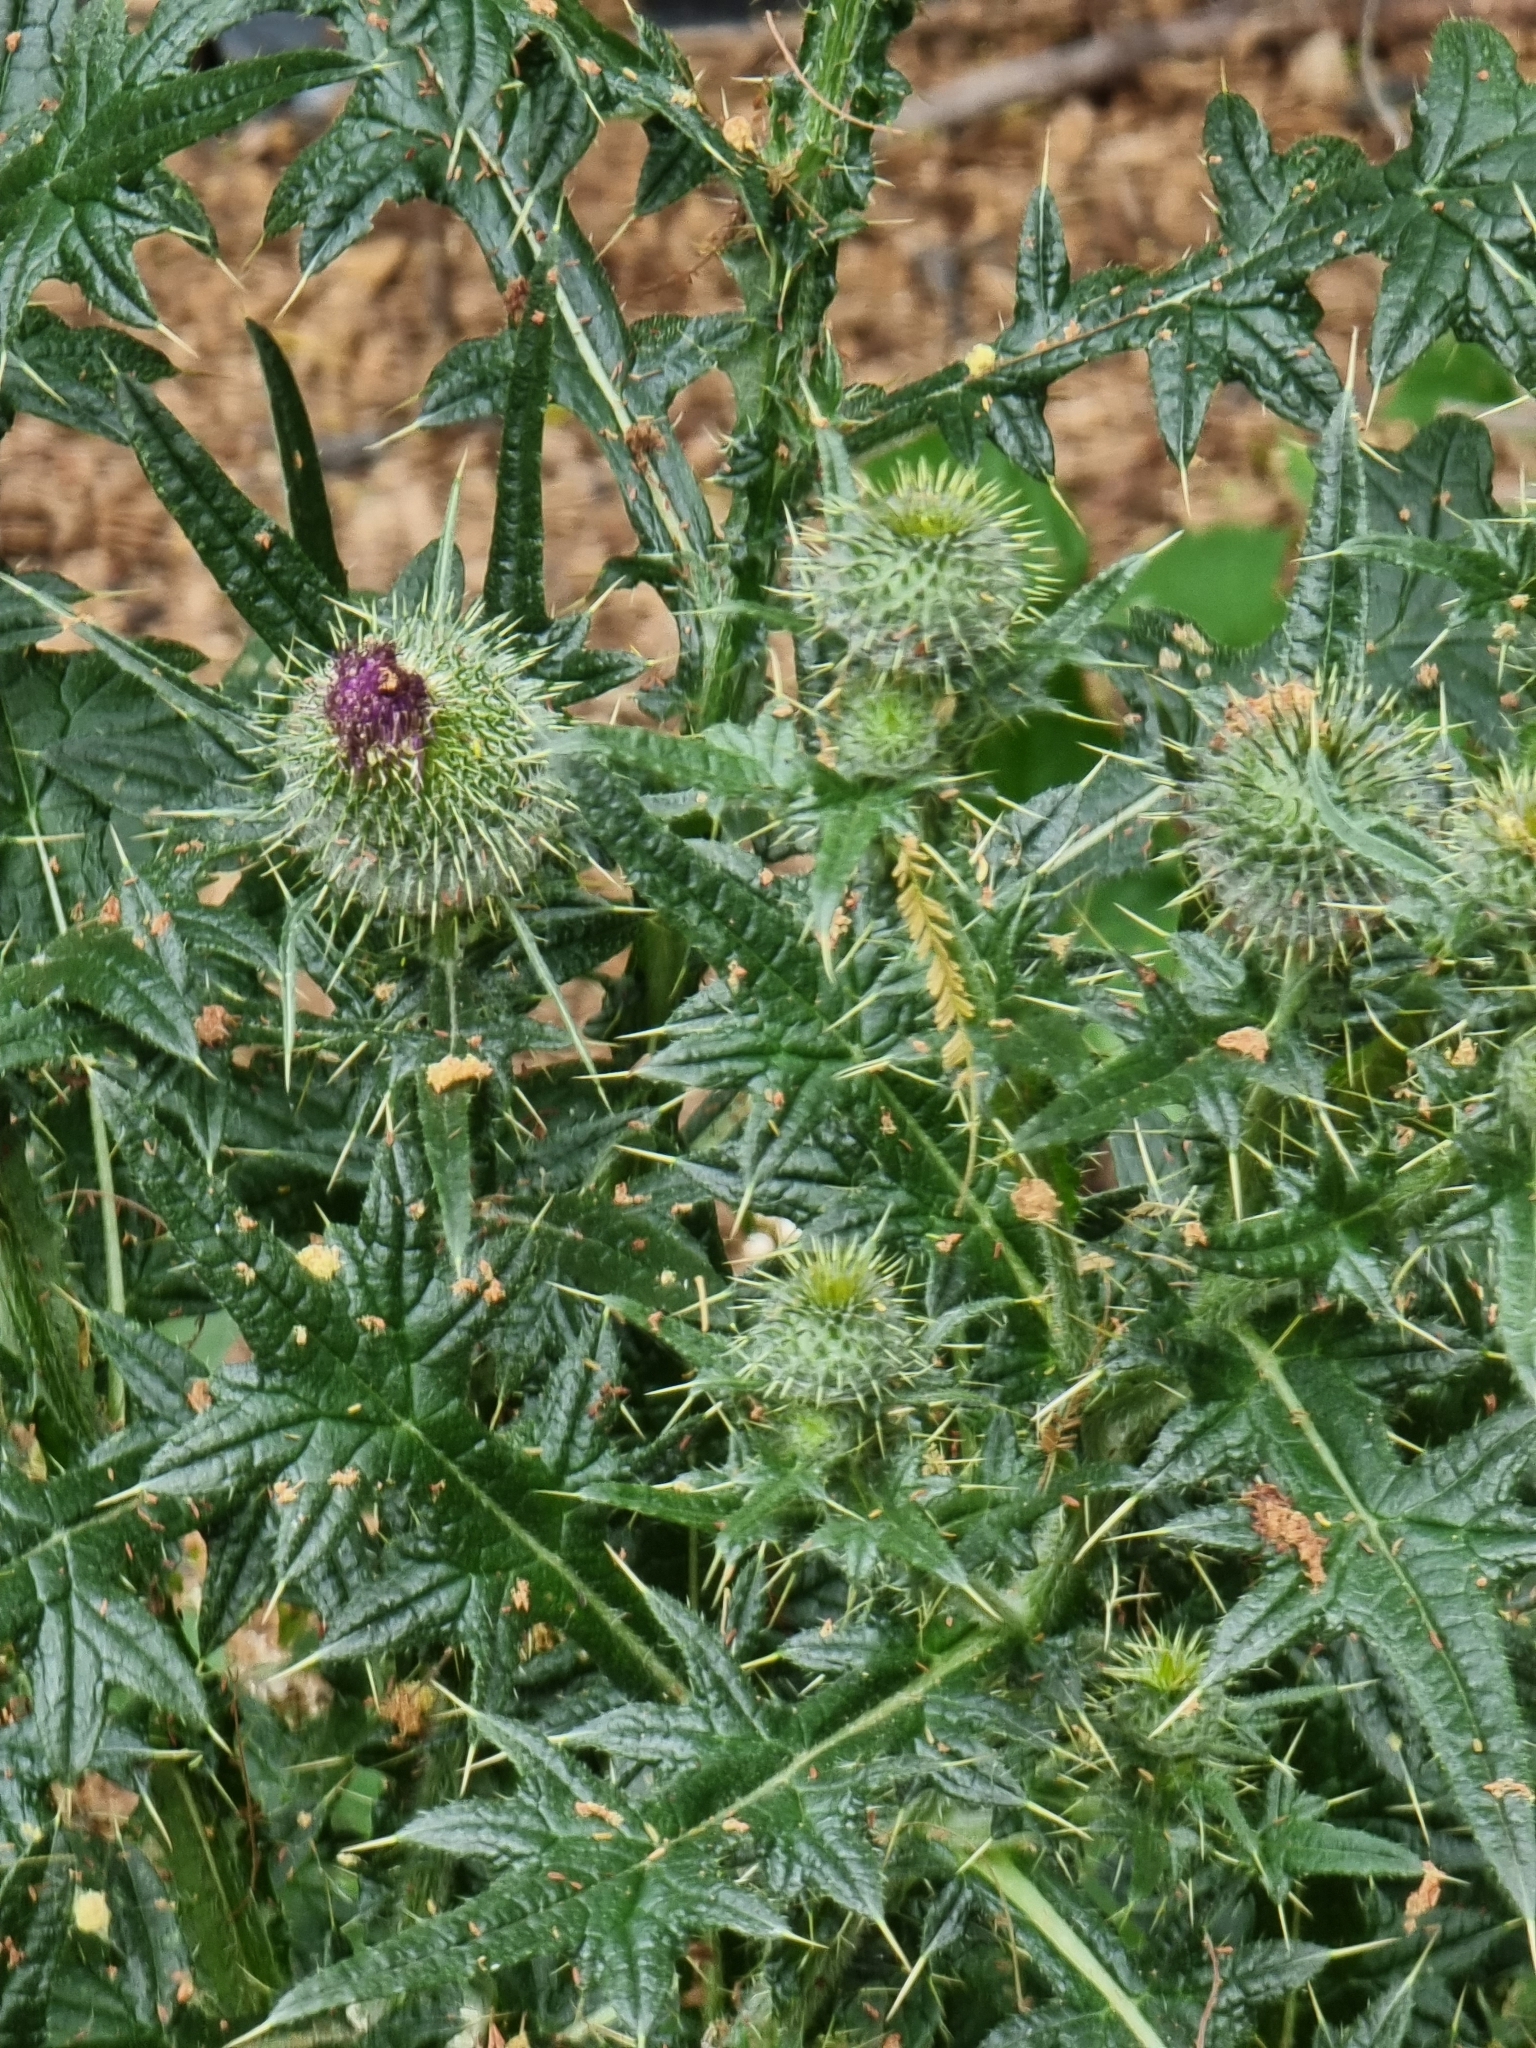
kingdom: Plantae
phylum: Tracheophyta
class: Magnoliopsida
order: Asterales
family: Asteraceae
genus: Cirsium
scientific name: Cirsium vulgare
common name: Bull thistle
